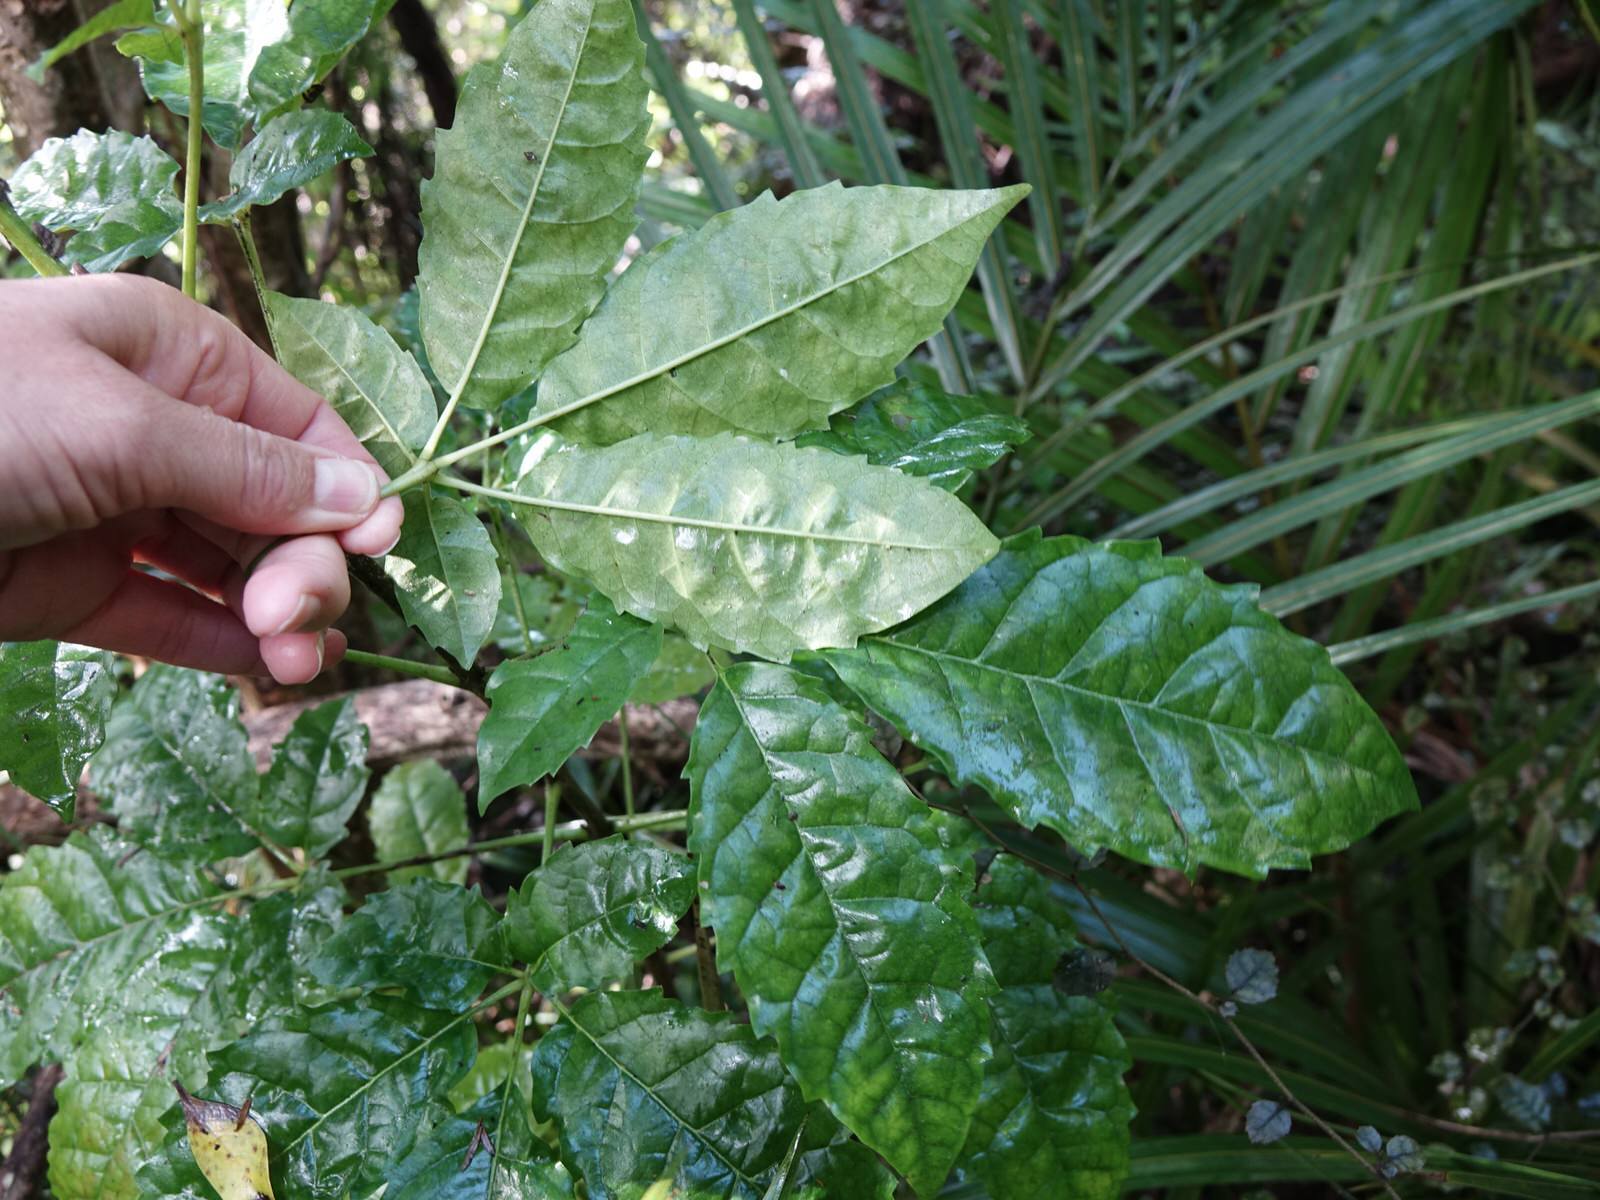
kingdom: Plantae
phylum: Tracheophyta
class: Magnoliopsida
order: Lamiales
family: Lamiaceae
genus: Vitex
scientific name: Vitex lucens
